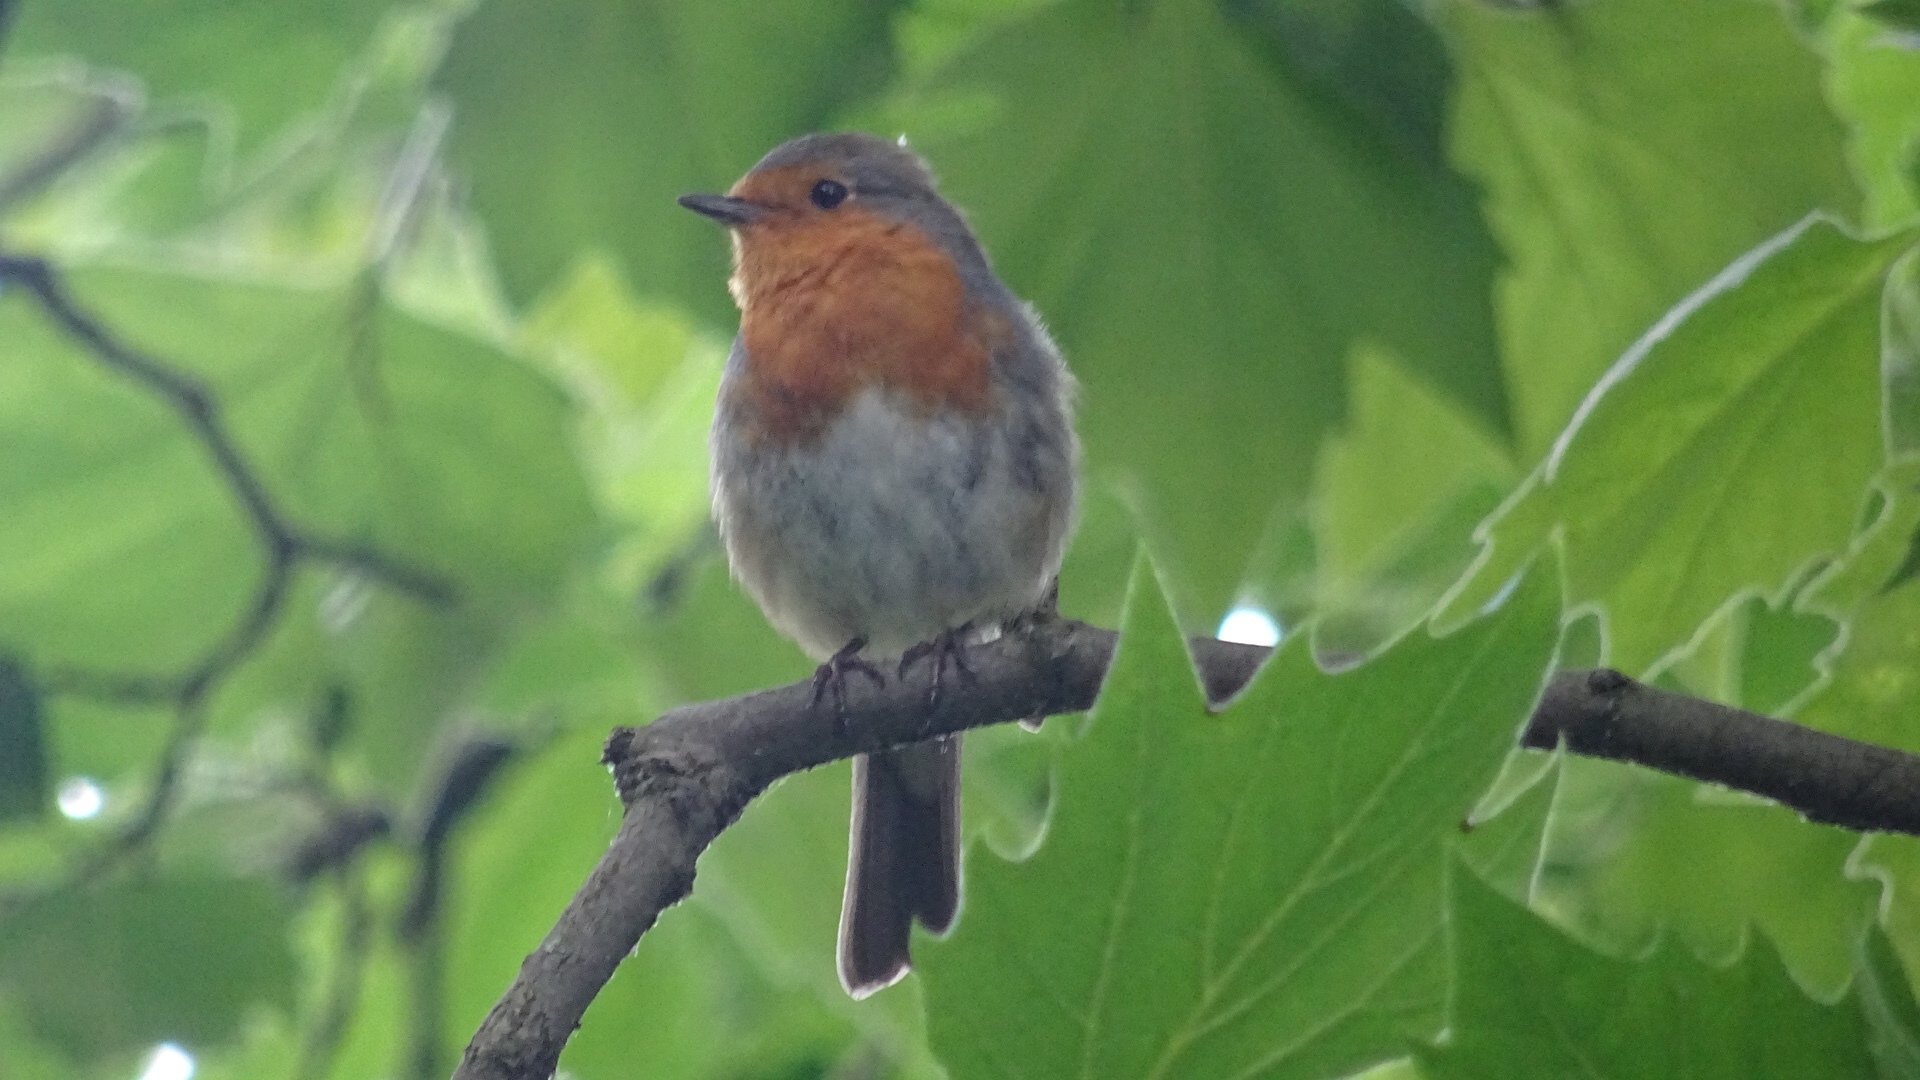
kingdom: Animalia
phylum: Chordata
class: Aves
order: Passeriformes
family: Muscicapidae
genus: Erithacus
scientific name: Erithacus rubecula
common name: European robin
